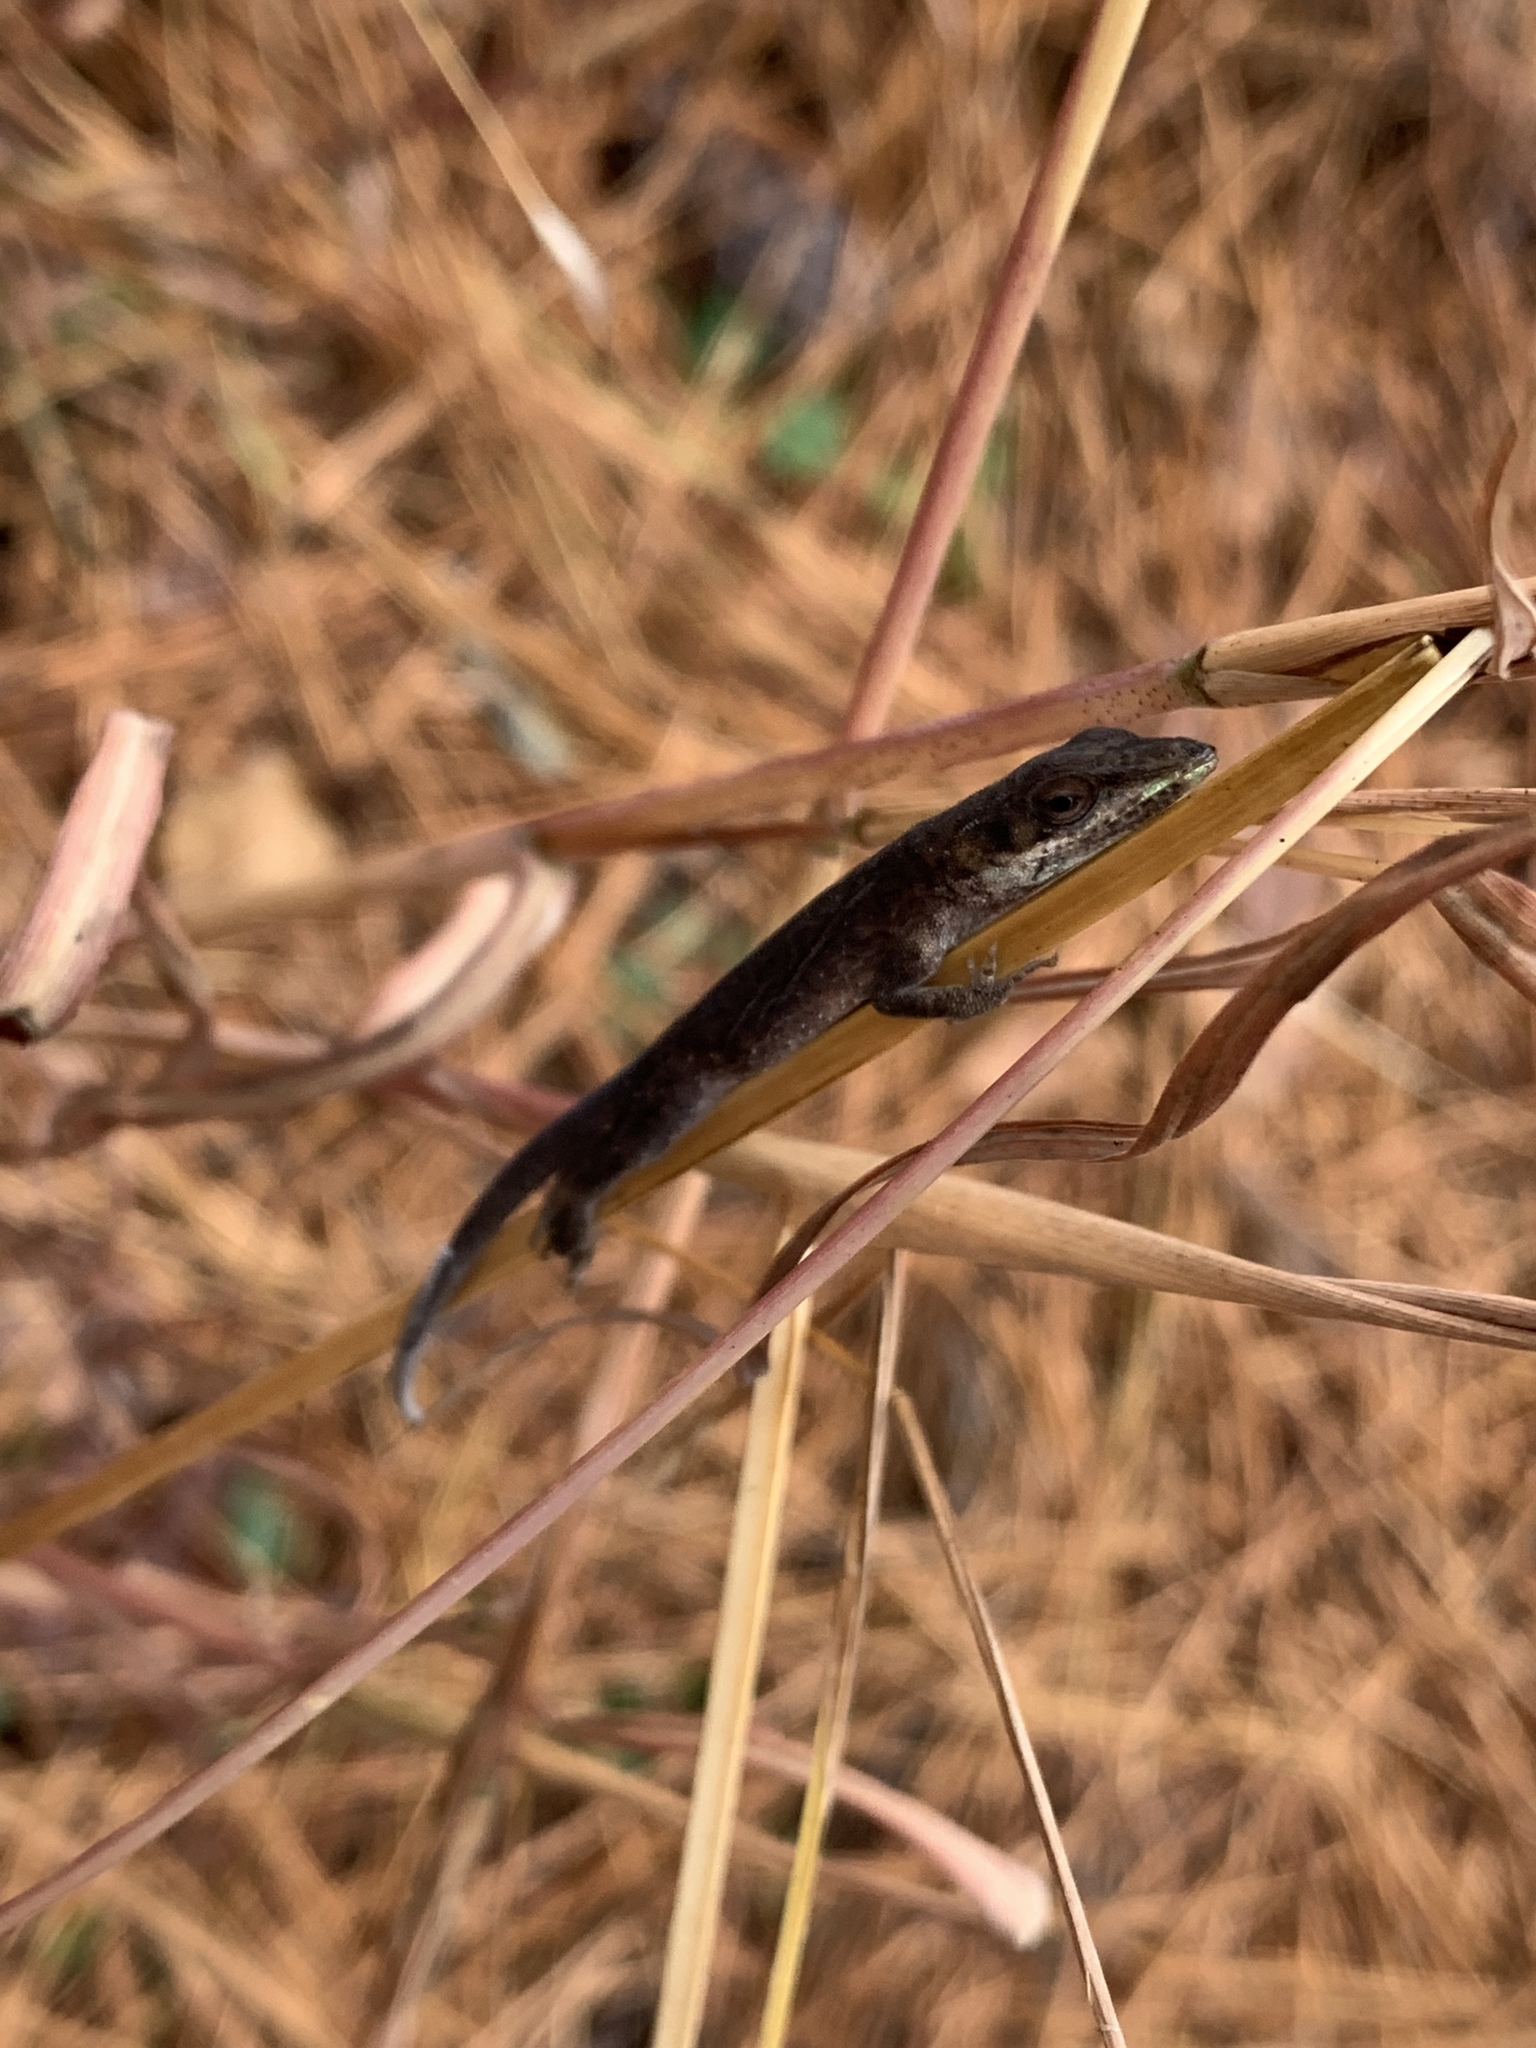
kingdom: Animalia
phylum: Chordata
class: Squamata
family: Dactyloidae
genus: Anolis
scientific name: Anolis carolinensis
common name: Green anole
